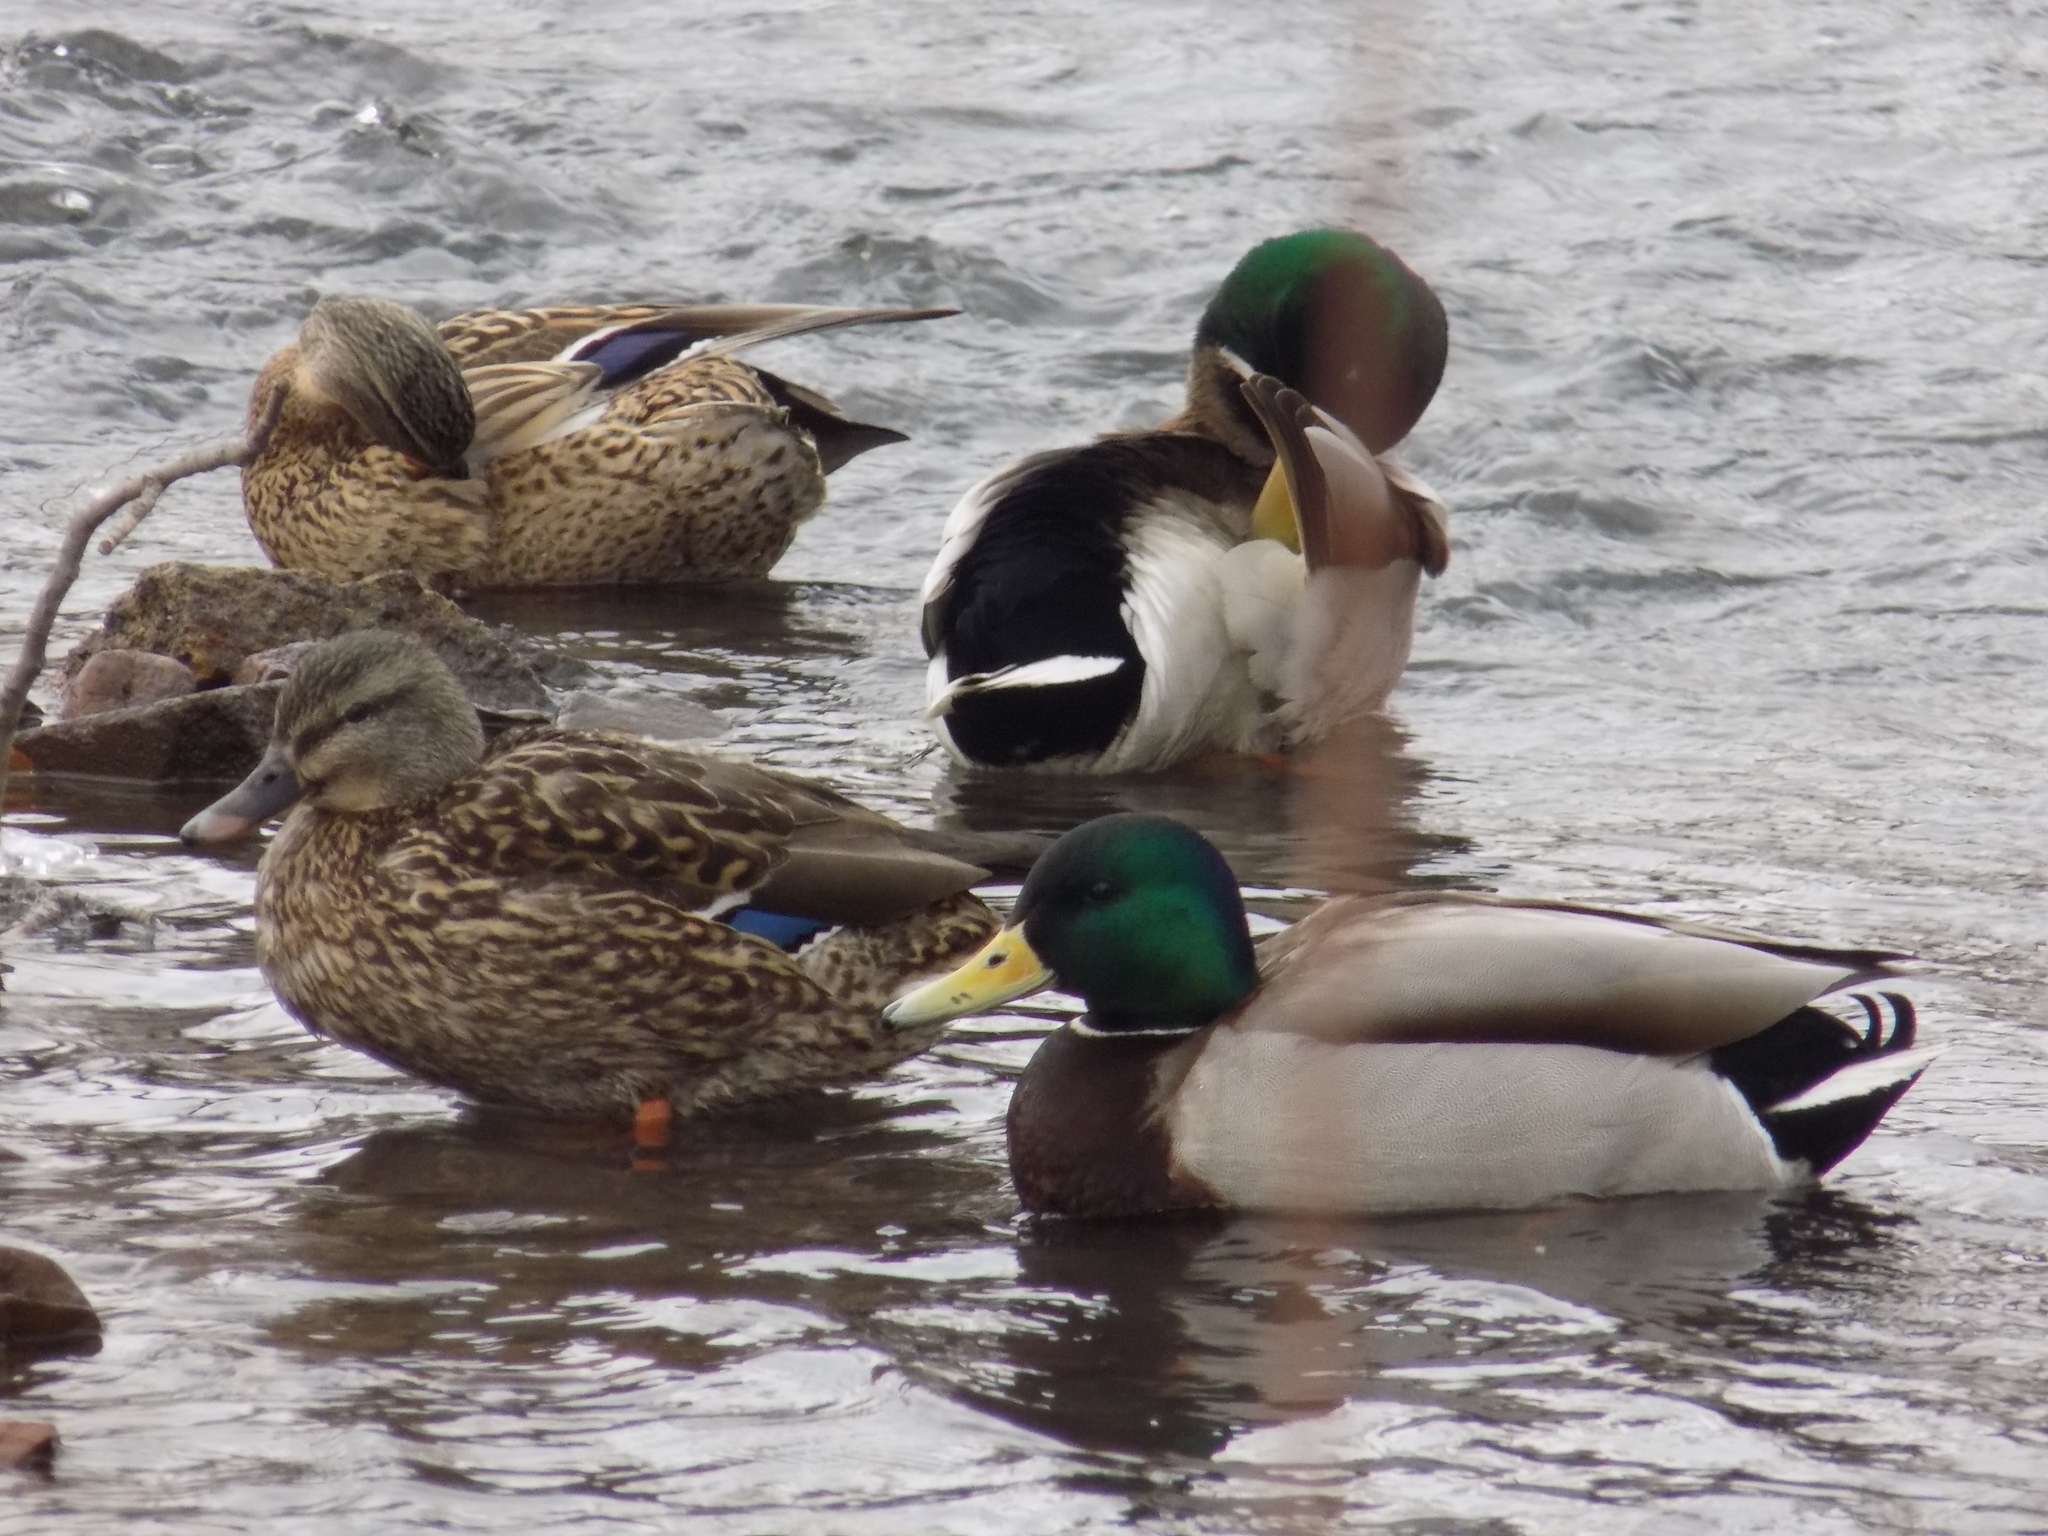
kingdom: Animalia
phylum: Chordata
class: Aves
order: Anseriformes
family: Anatidae
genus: Anas
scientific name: Anas platyrhynchos
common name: Mallard
